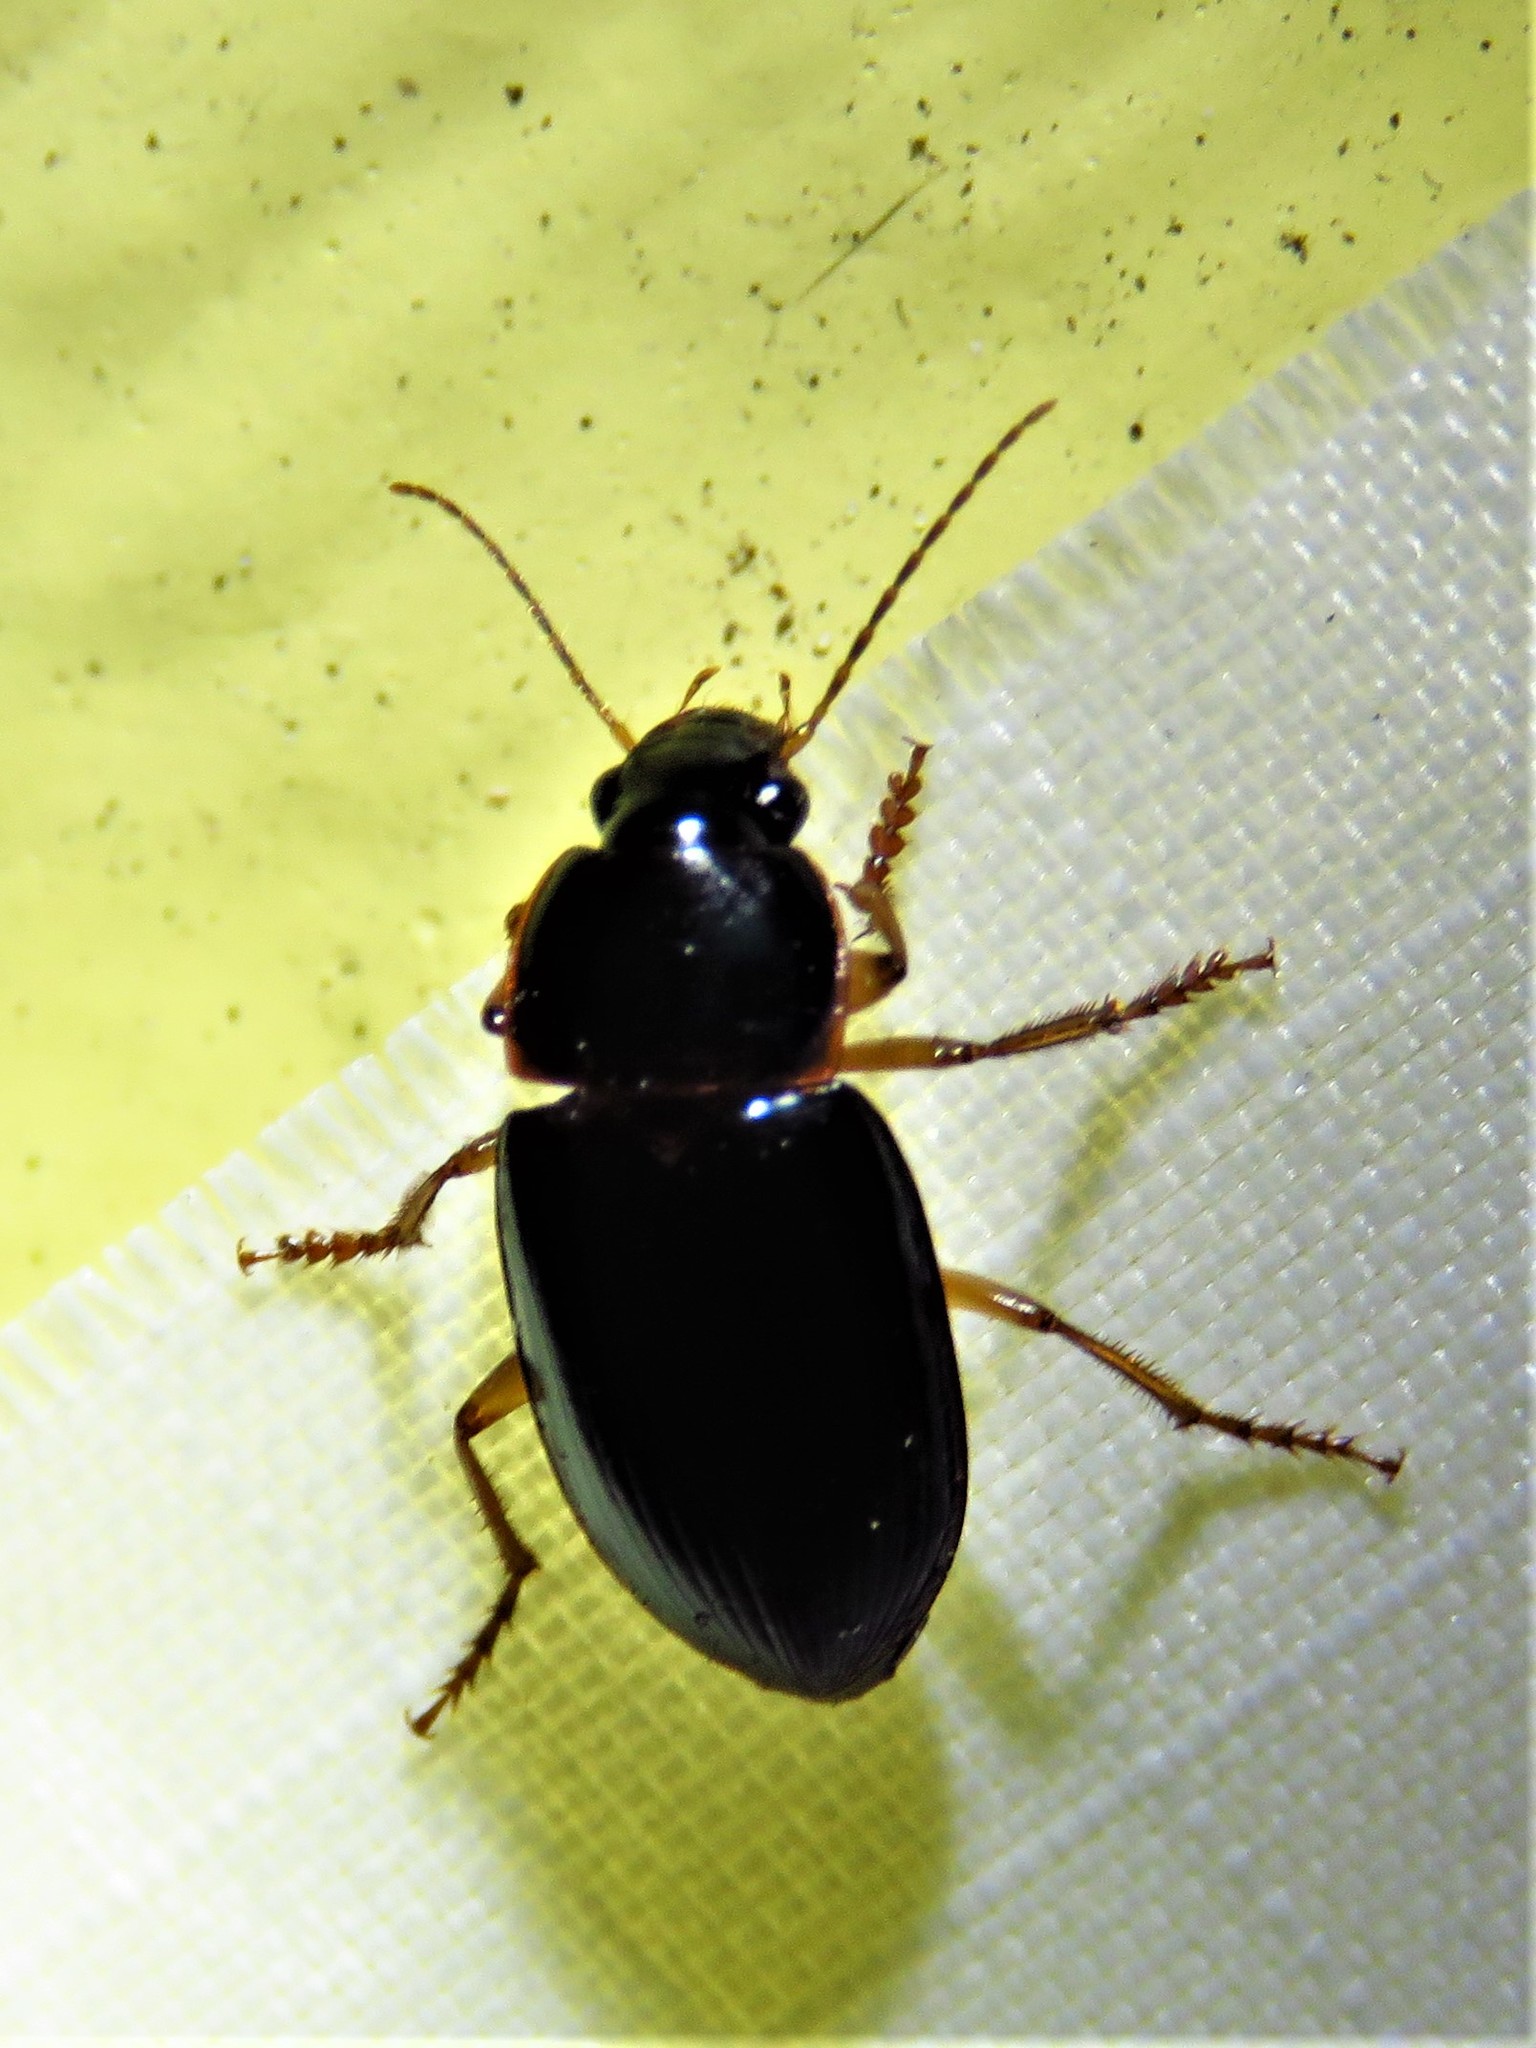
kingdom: Animalia
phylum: Arthropoda
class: Insecta
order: Coleoptera
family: Carabidae
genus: Notiobia
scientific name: Notiobia terminata
